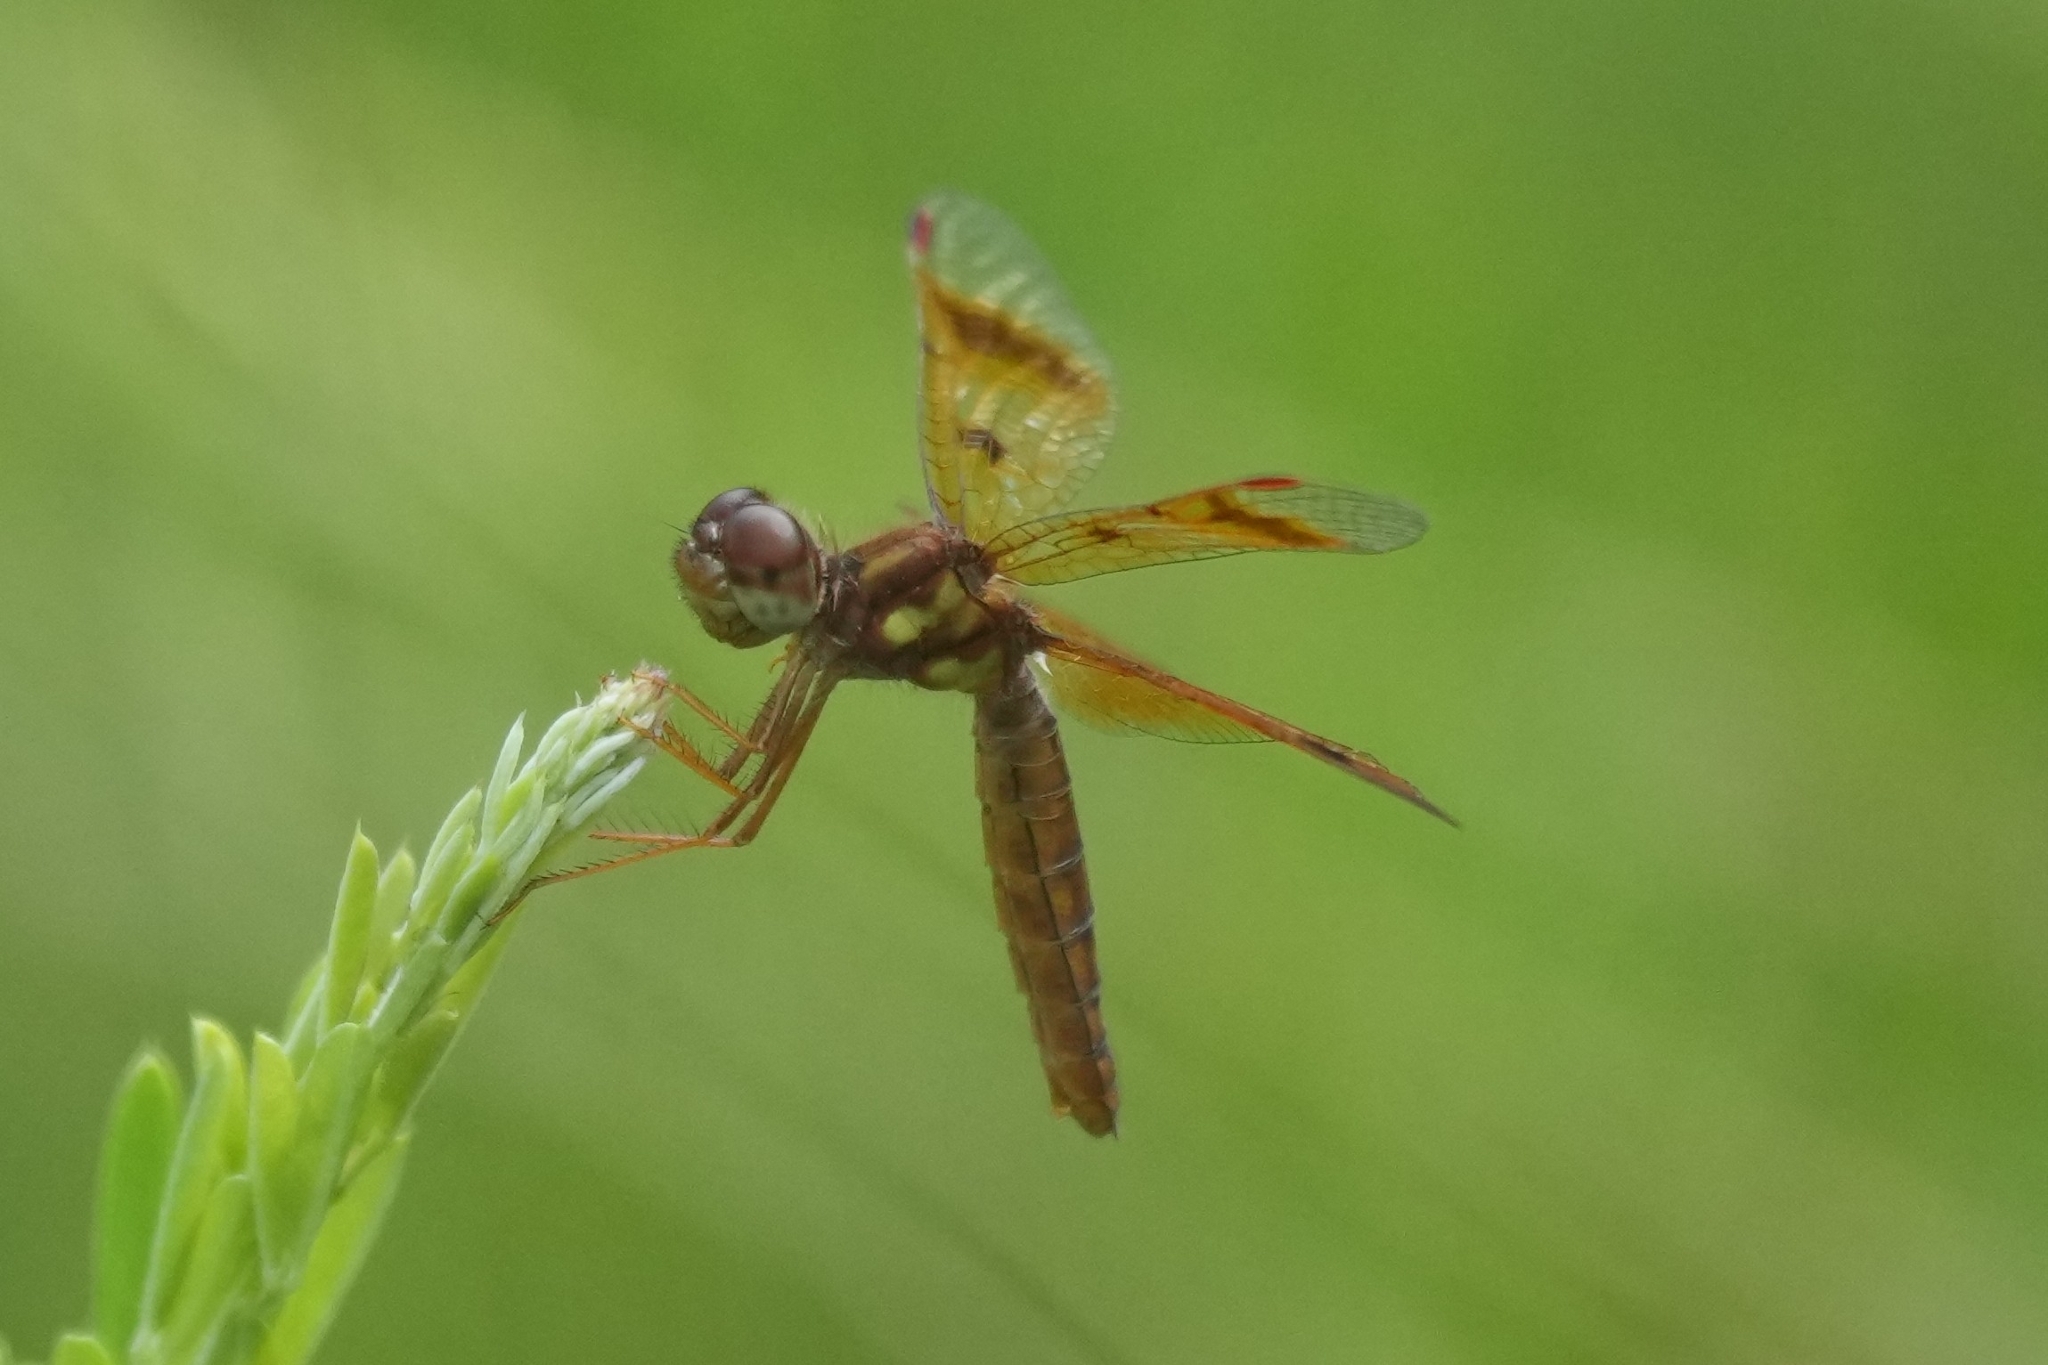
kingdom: Animalia
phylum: Arthropoda
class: Insecta
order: Odonata
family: Libellulidae
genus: Perithemis
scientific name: Perithemis tenera
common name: Eastern amberwing
